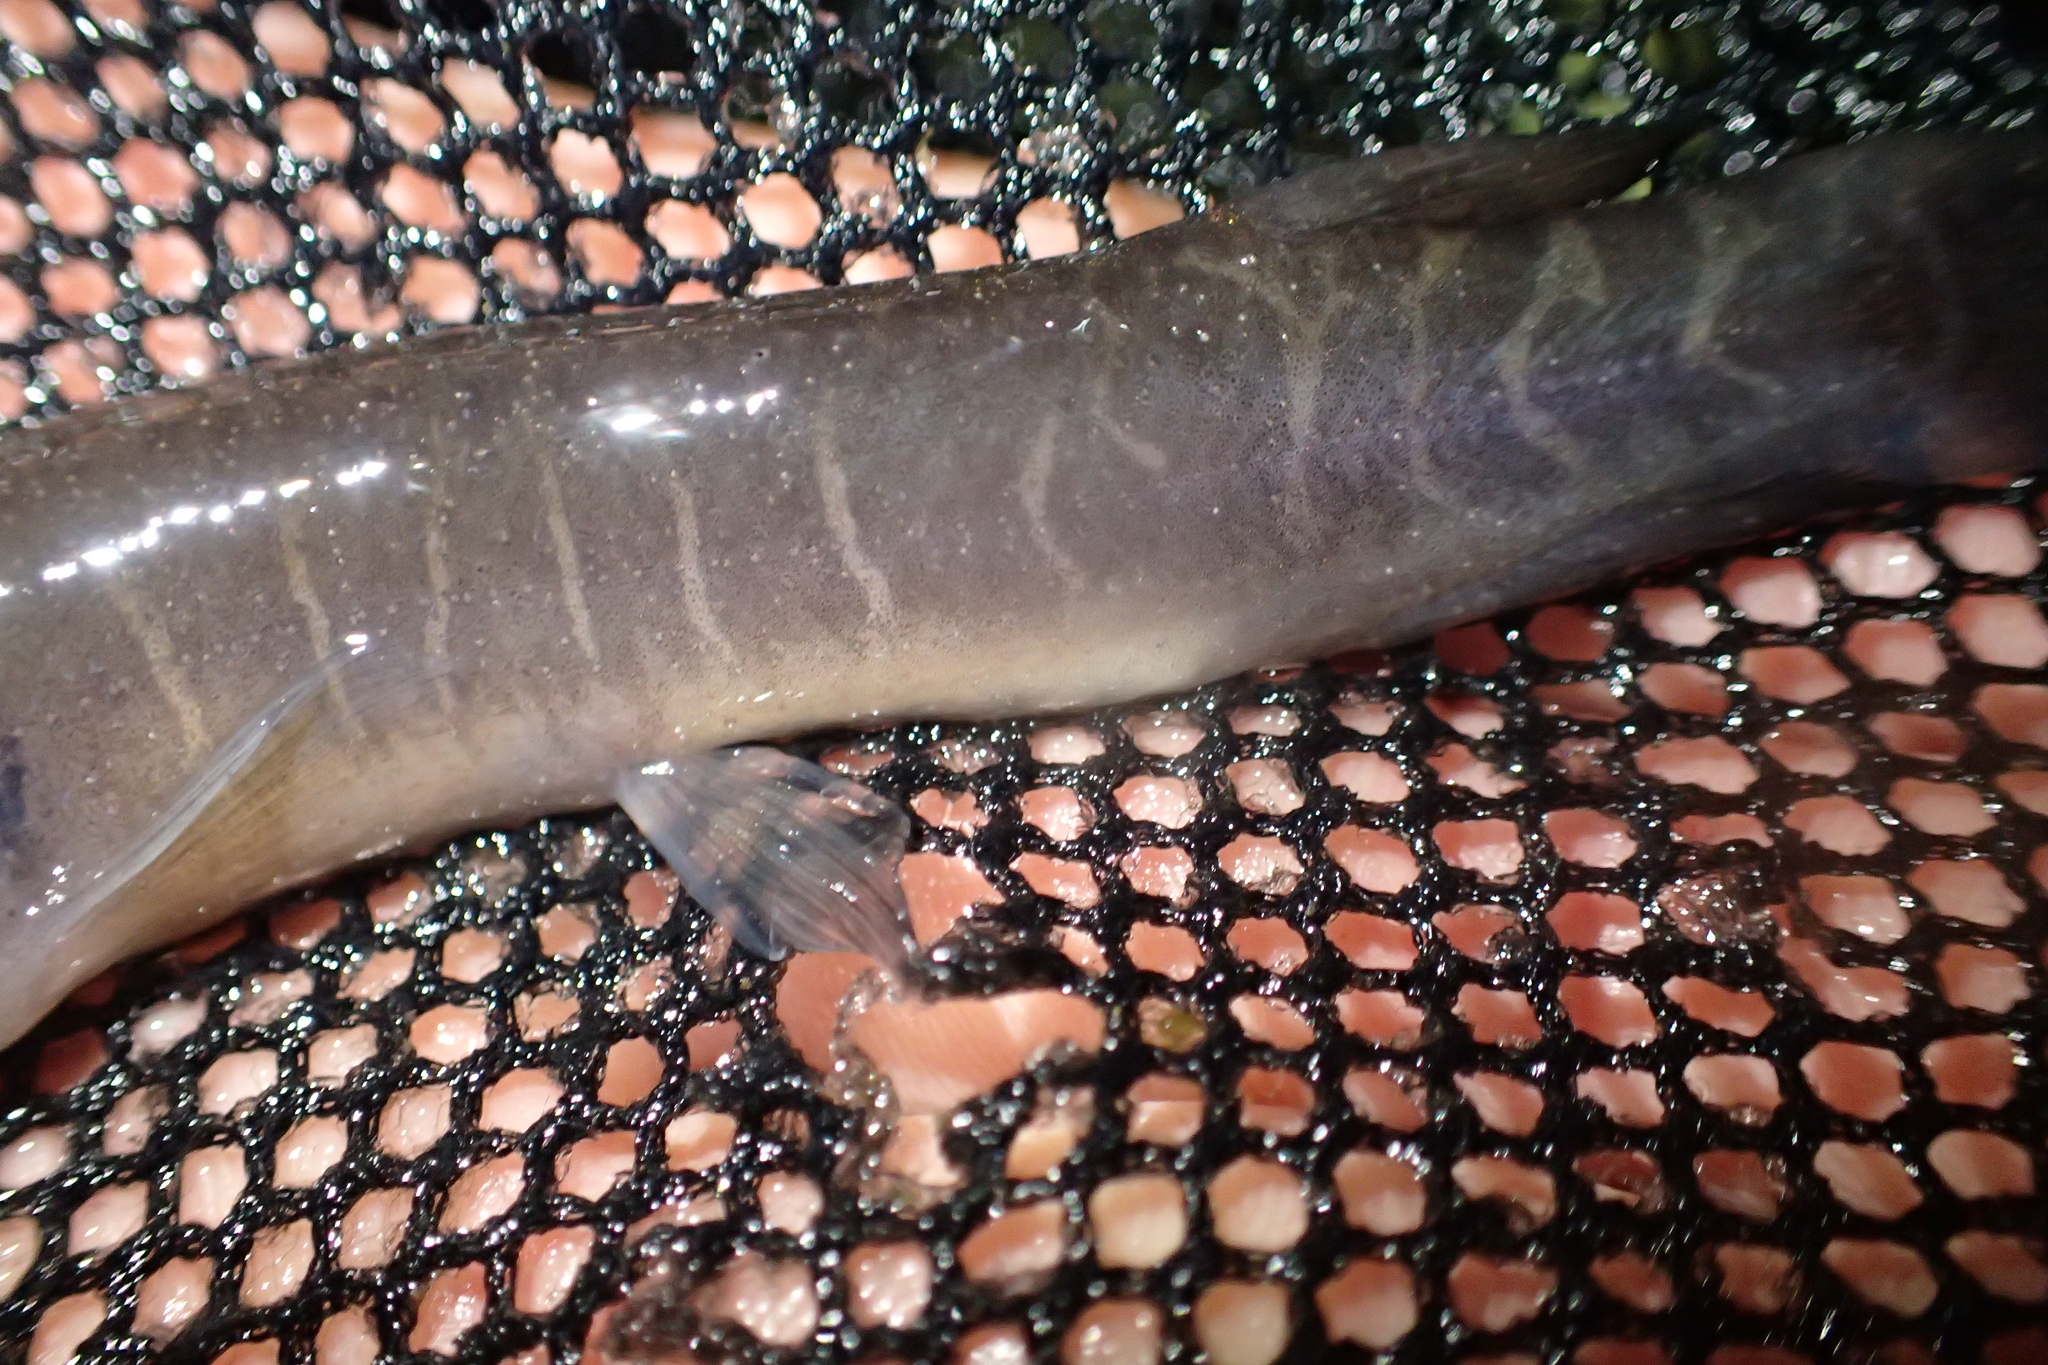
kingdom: Animalia
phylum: Chordata
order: Osmeriformes
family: Galaxiidae
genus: Galaxias
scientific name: Galaxias fasciatus
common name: Banded kokopu
